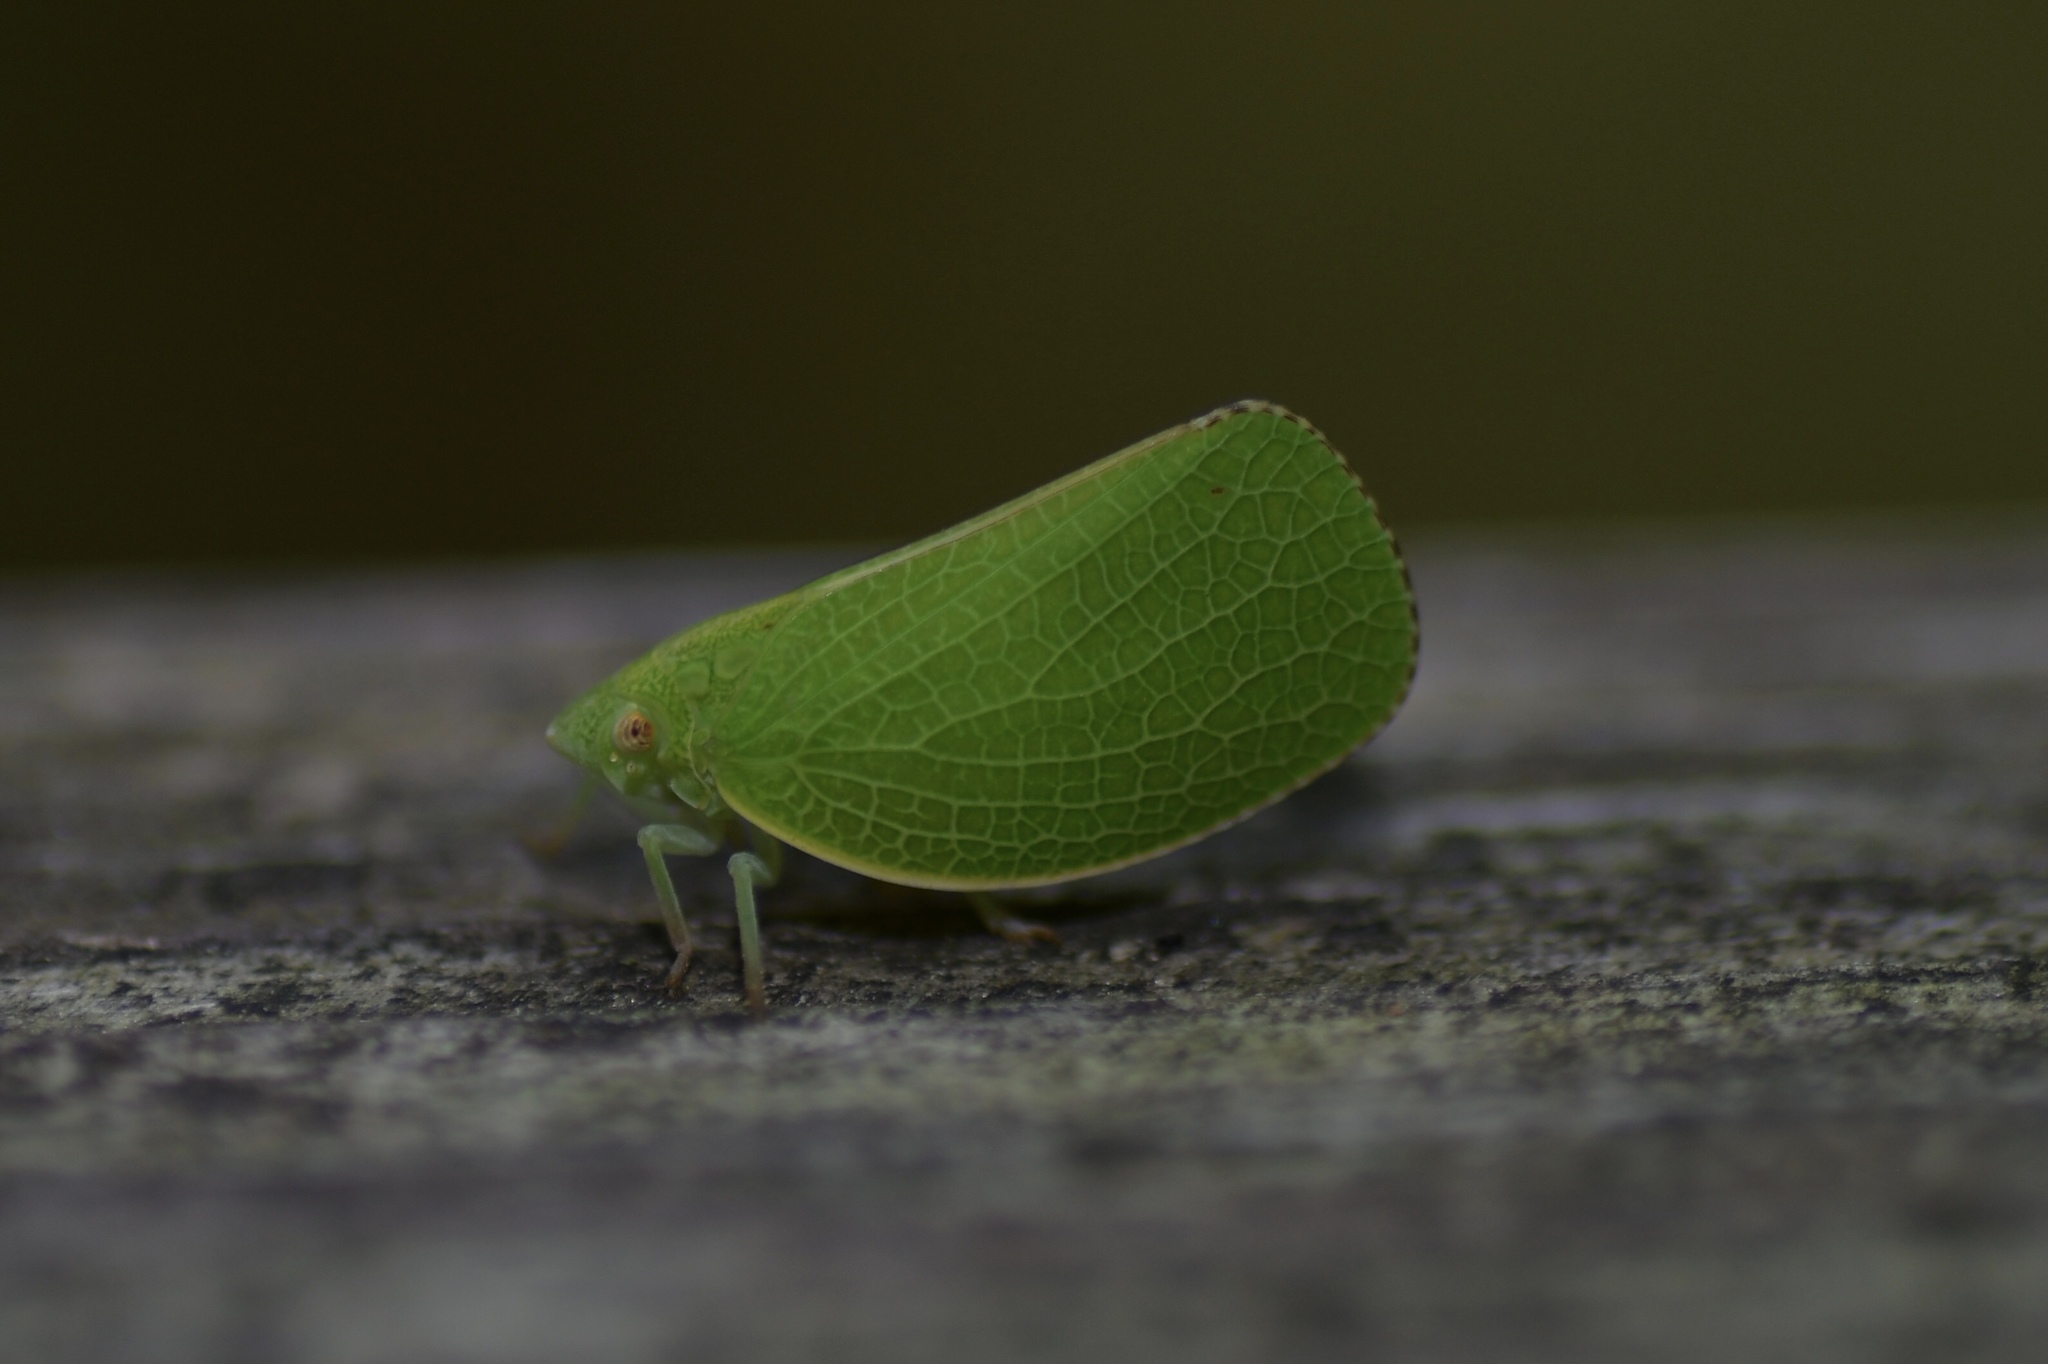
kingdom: Animalia
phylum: Arthropoda
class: Insecta
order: Hemiptera
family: Acanaloniidae
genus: Acanalonia
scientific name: Acanalonia conica
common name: Green cone-headed planthopper
